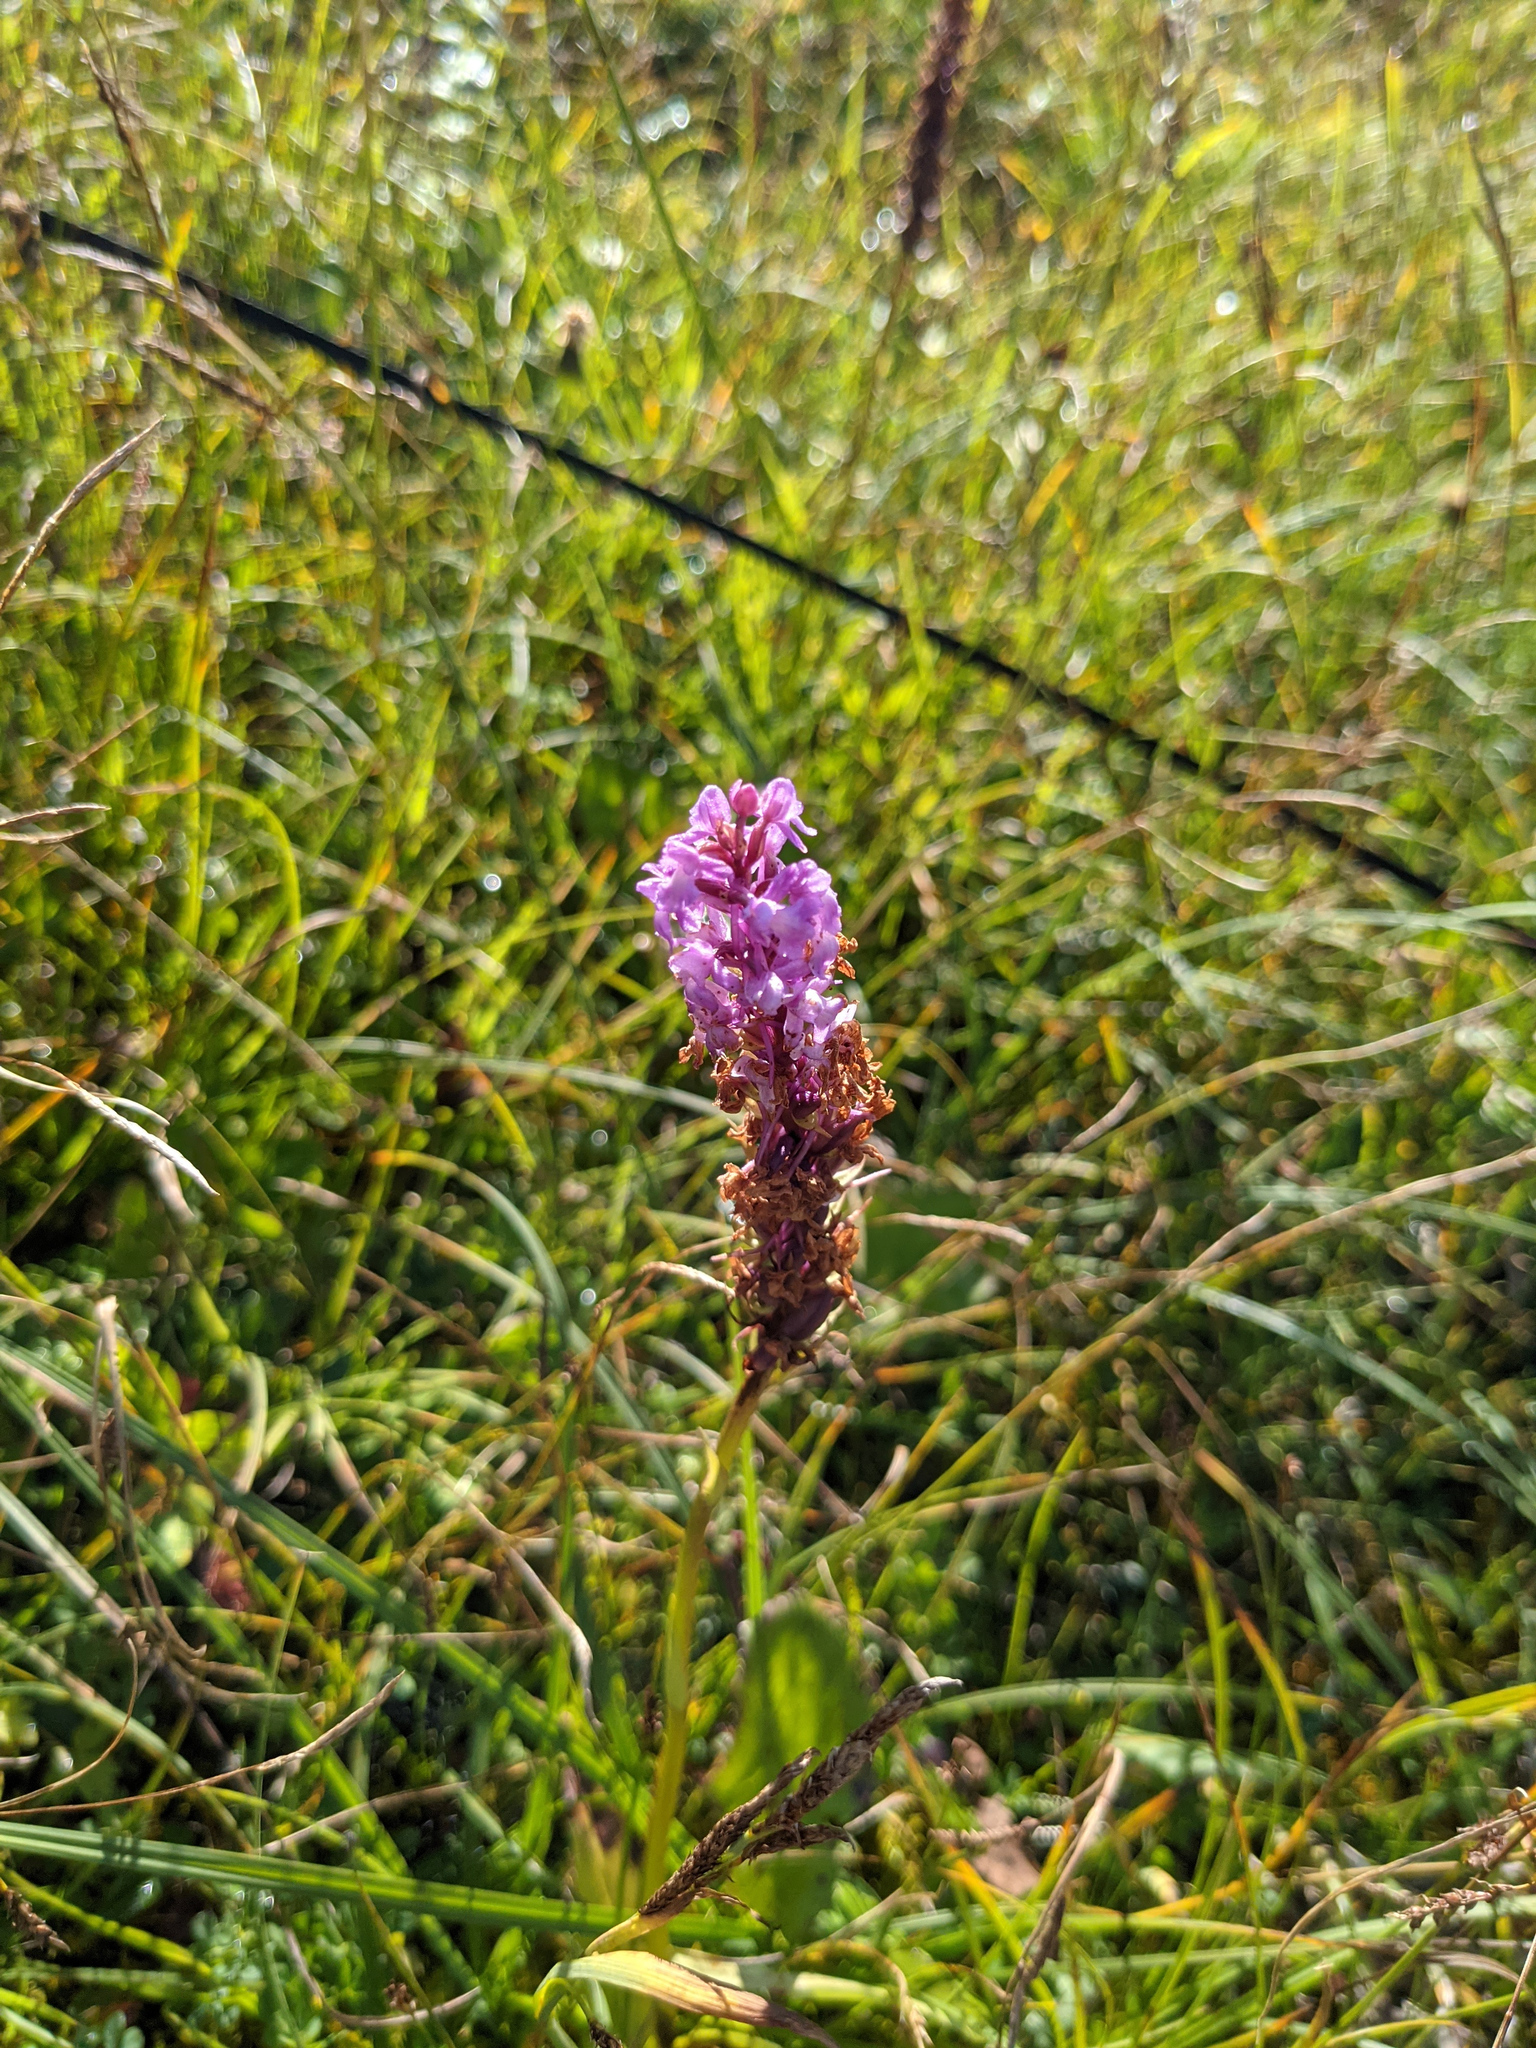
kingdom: Plantae
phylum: Tracheophyta
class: Liliopsida
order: Asparagales
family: Orchidaceae
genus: Gymnadenia
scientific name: Gymnadenia conopsea
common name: Fragrant orchid
